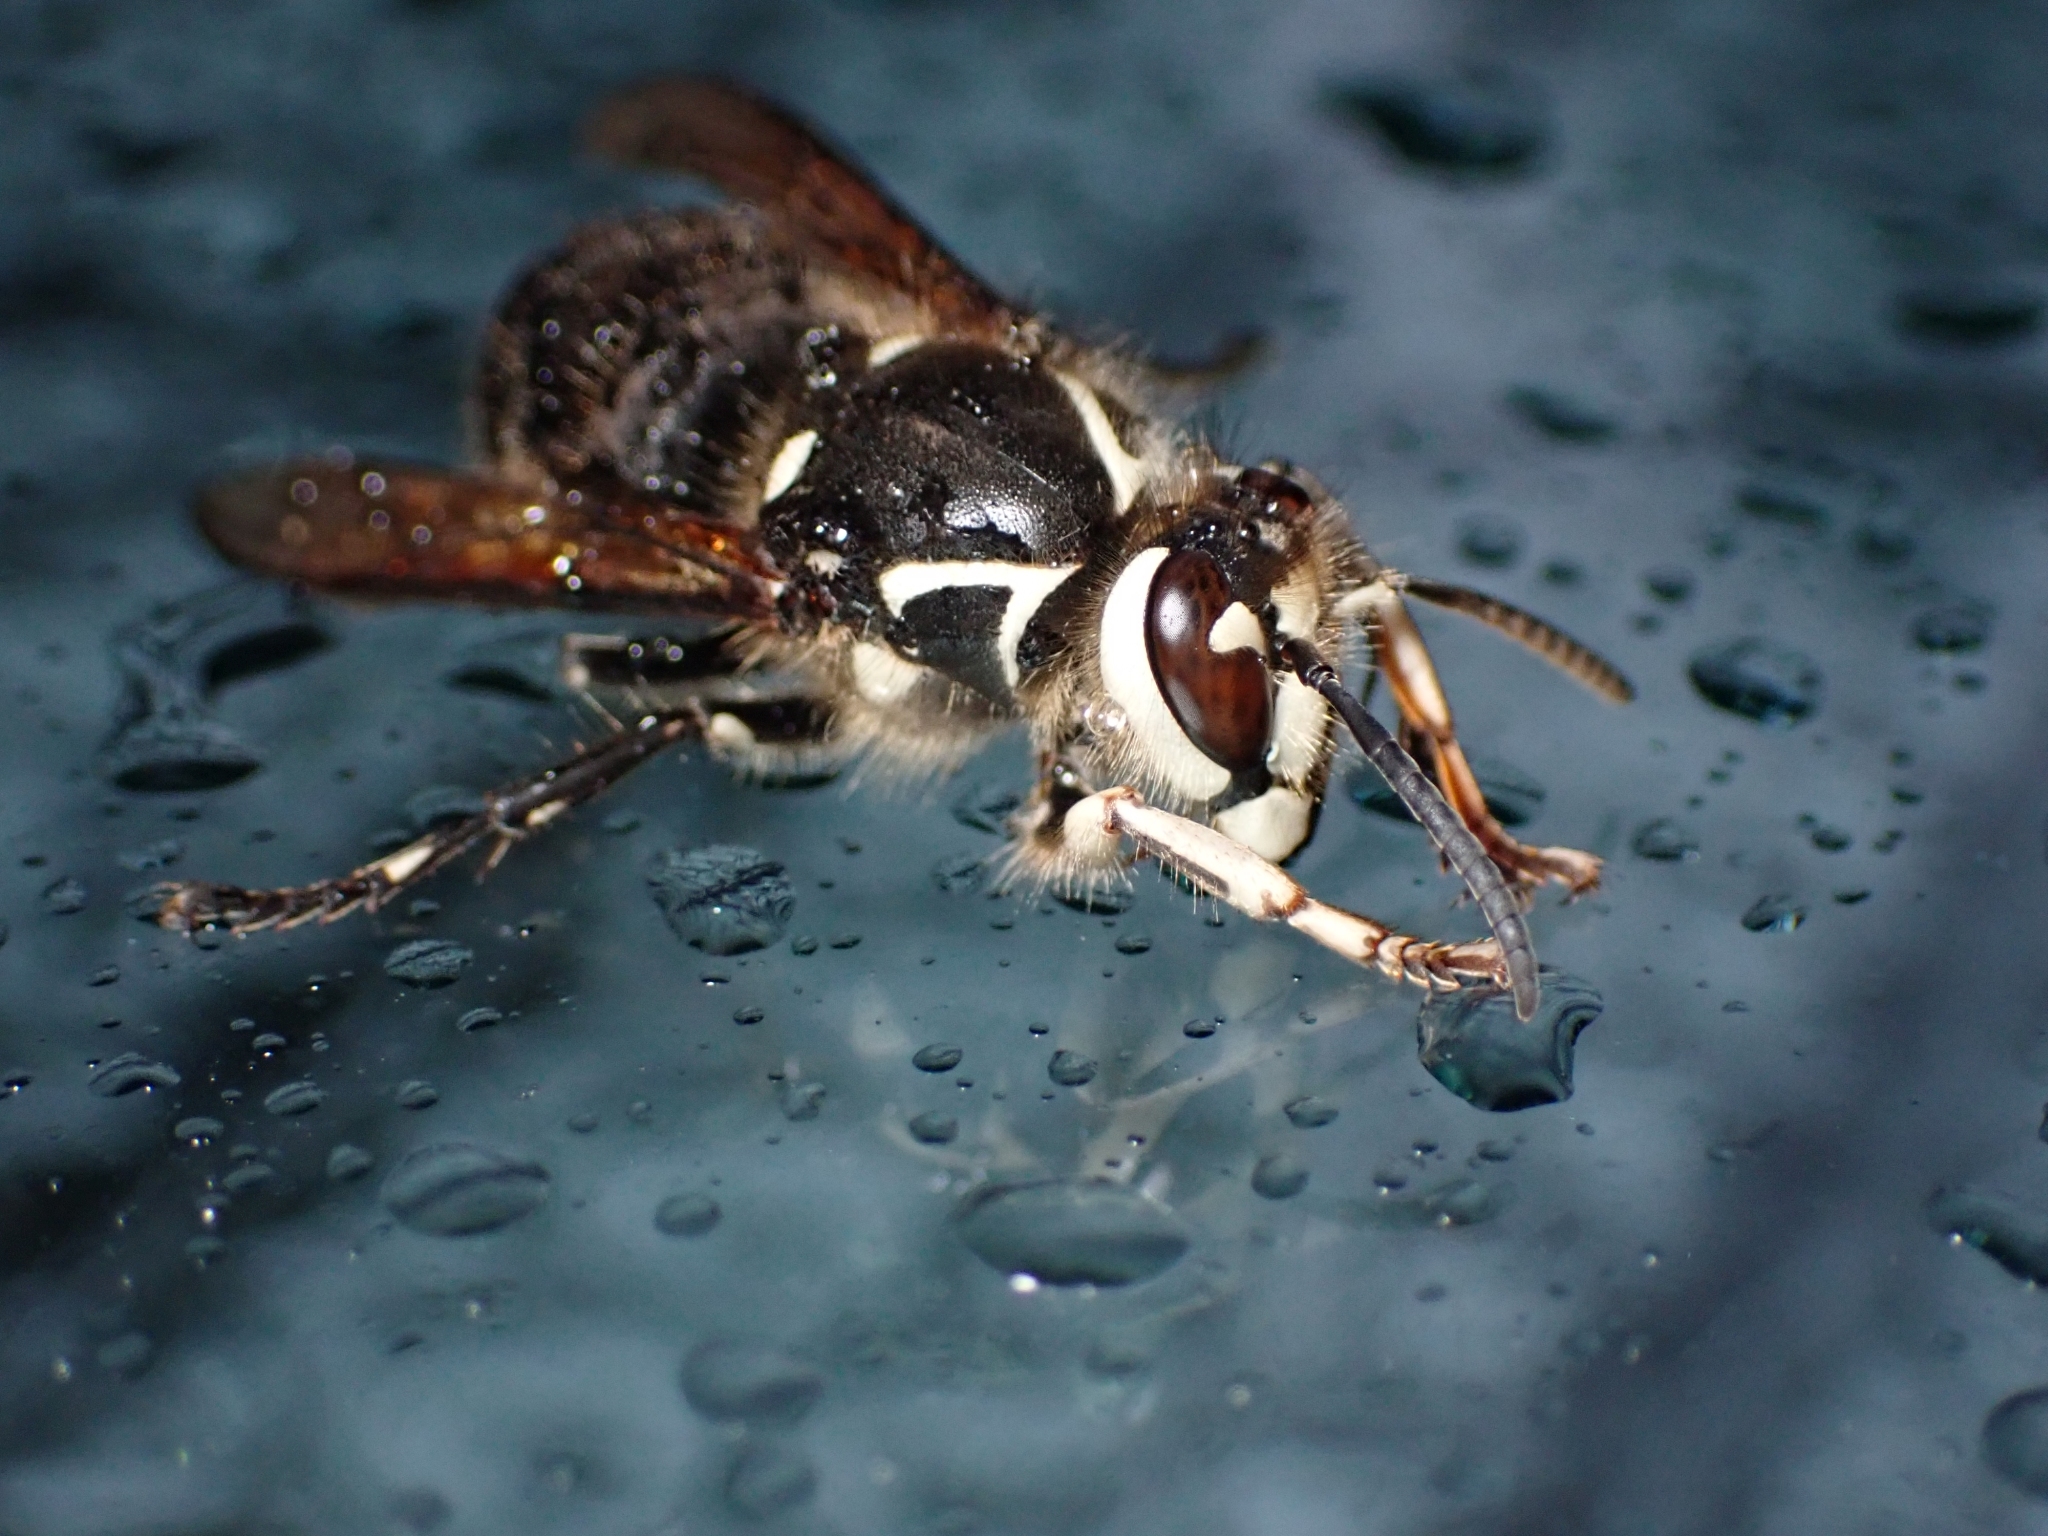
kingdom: Animalia
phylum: Arthropoda
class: Insecta
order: Hymenoptera
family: Vespidae
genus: Dolichovespula
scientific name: Dolichovespula maculata
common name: Bald-faced hornet
